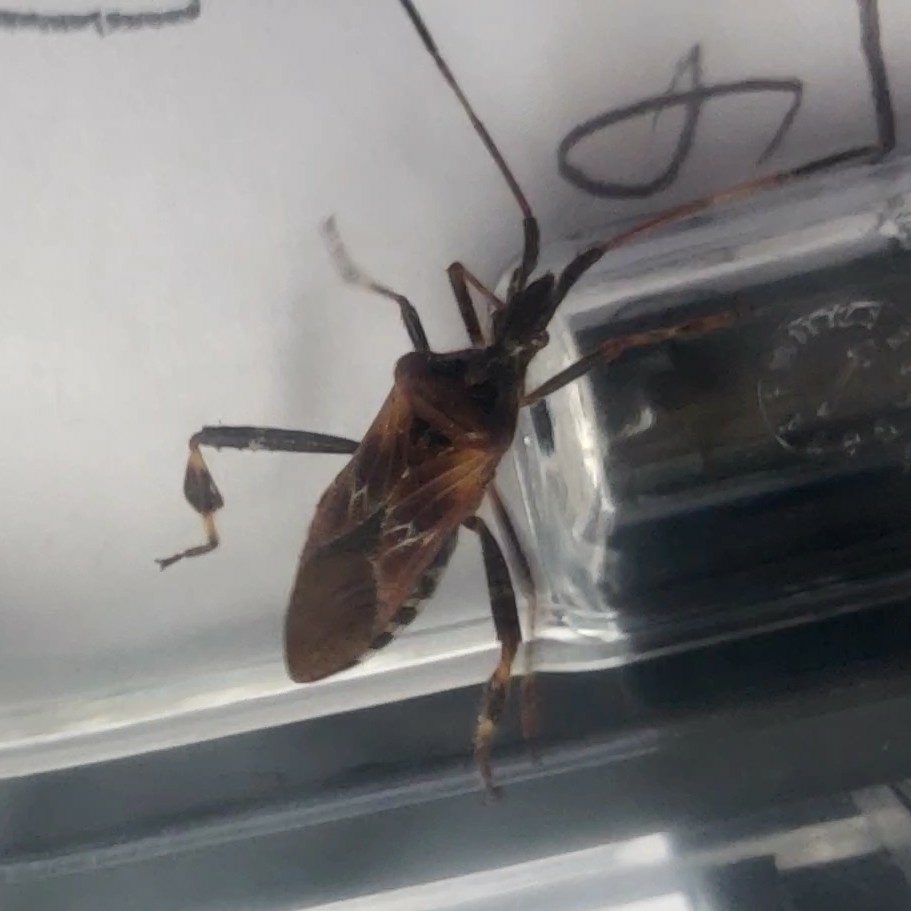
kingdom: Animalia
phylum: Arthropoda
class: Insecta
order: Hemiptera
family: Coreidae
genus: Leptoglossus
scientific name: Leptoglossus occidentalis
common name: Western conifer-seed bug
